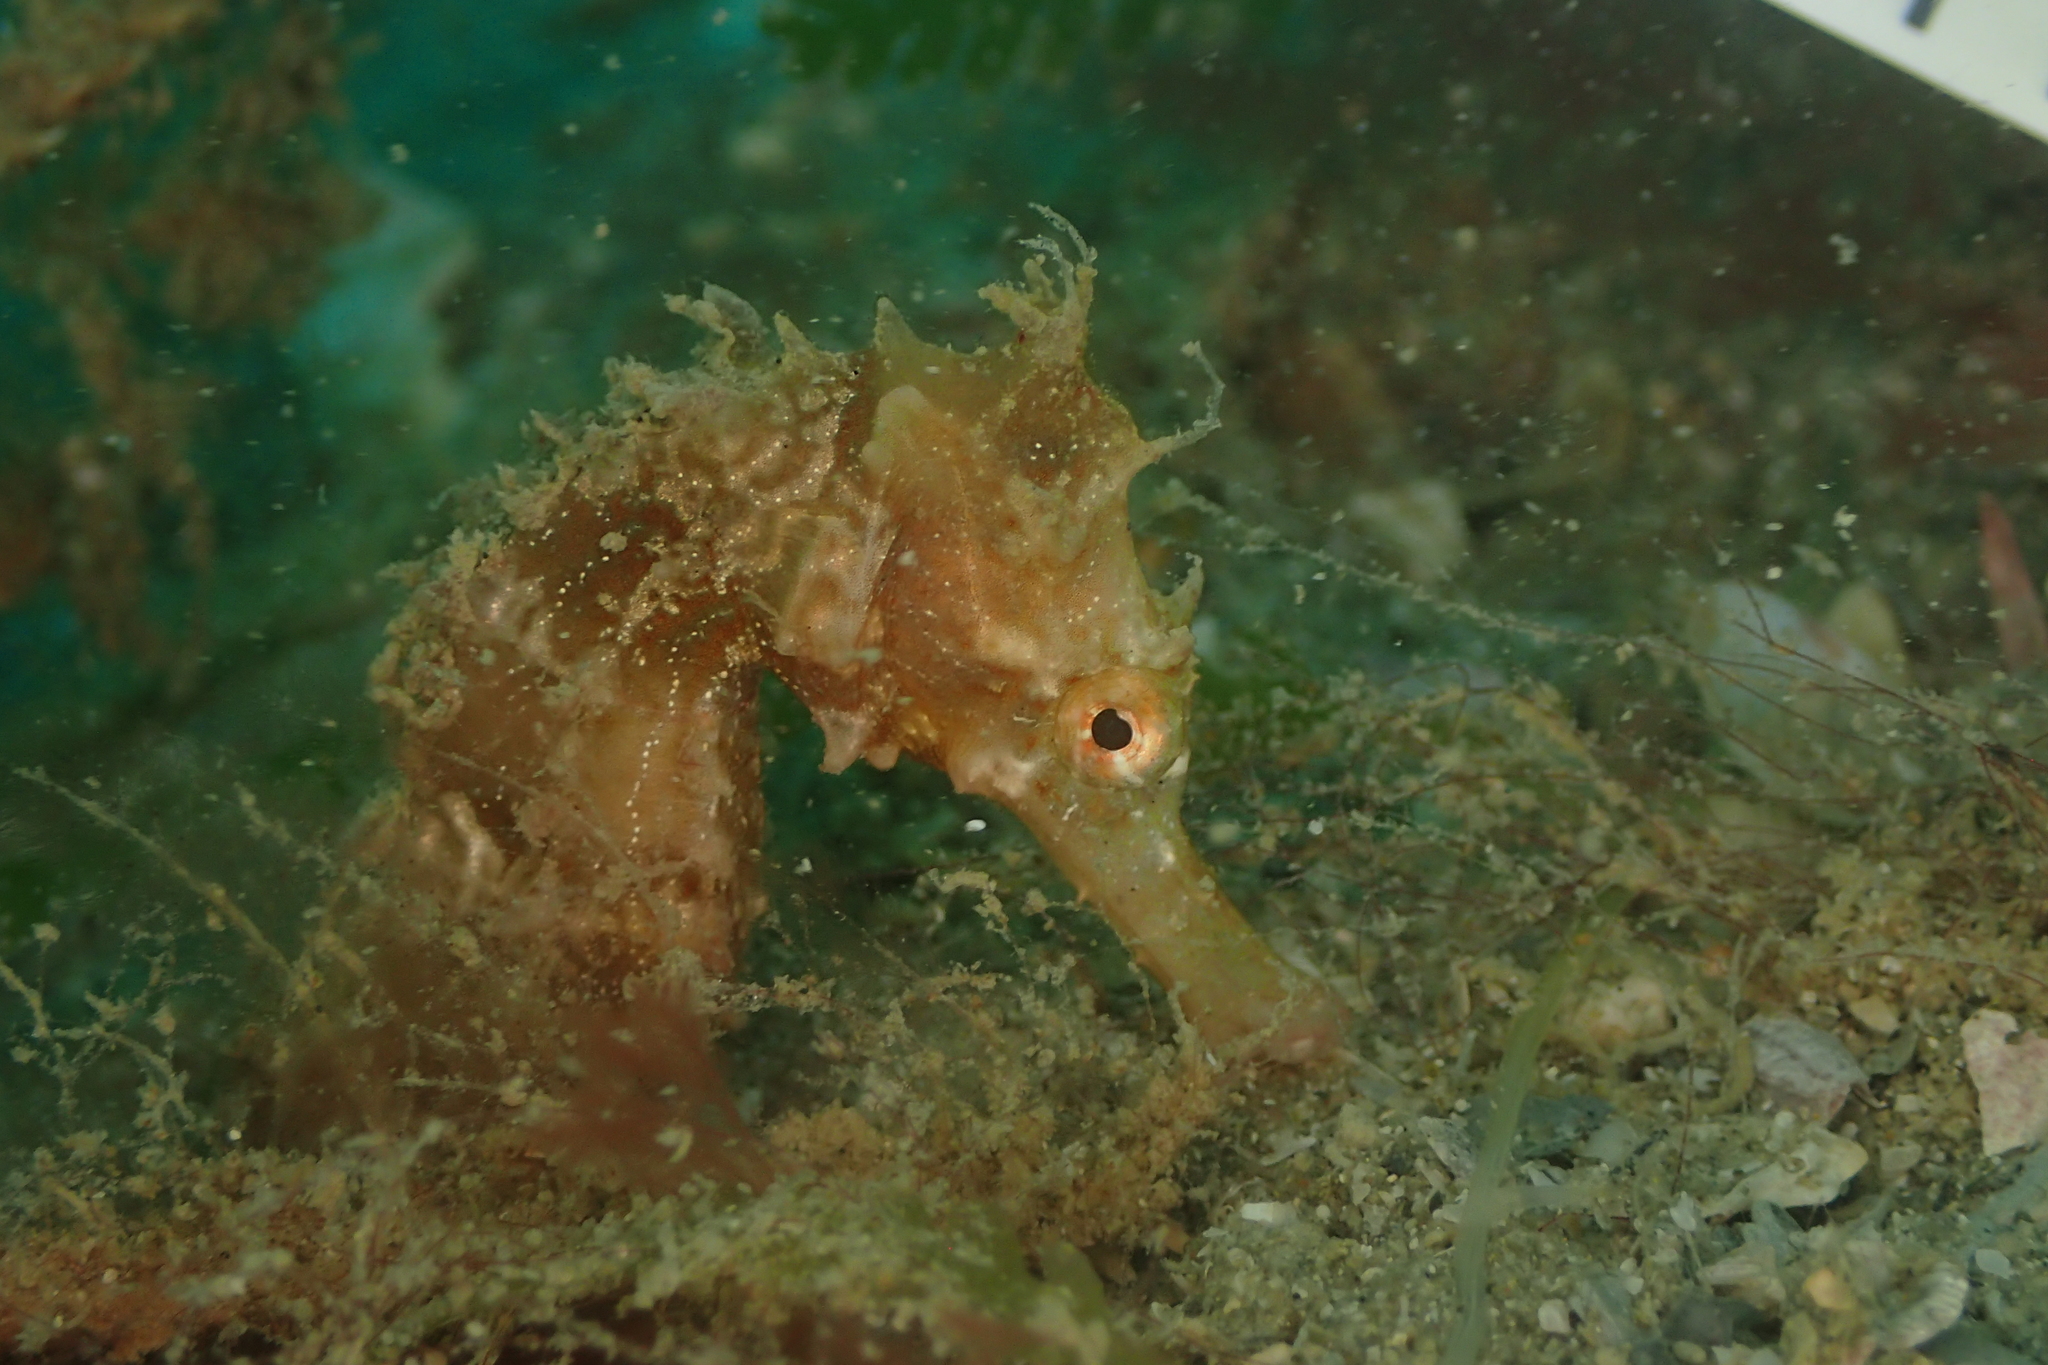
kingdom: Animalia
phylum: Chordata
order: Syngnathiformes
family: Syngnathidae
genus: Hippocampus
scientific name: Hippocampus spinosissimus
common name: Hedgehog seahorse
